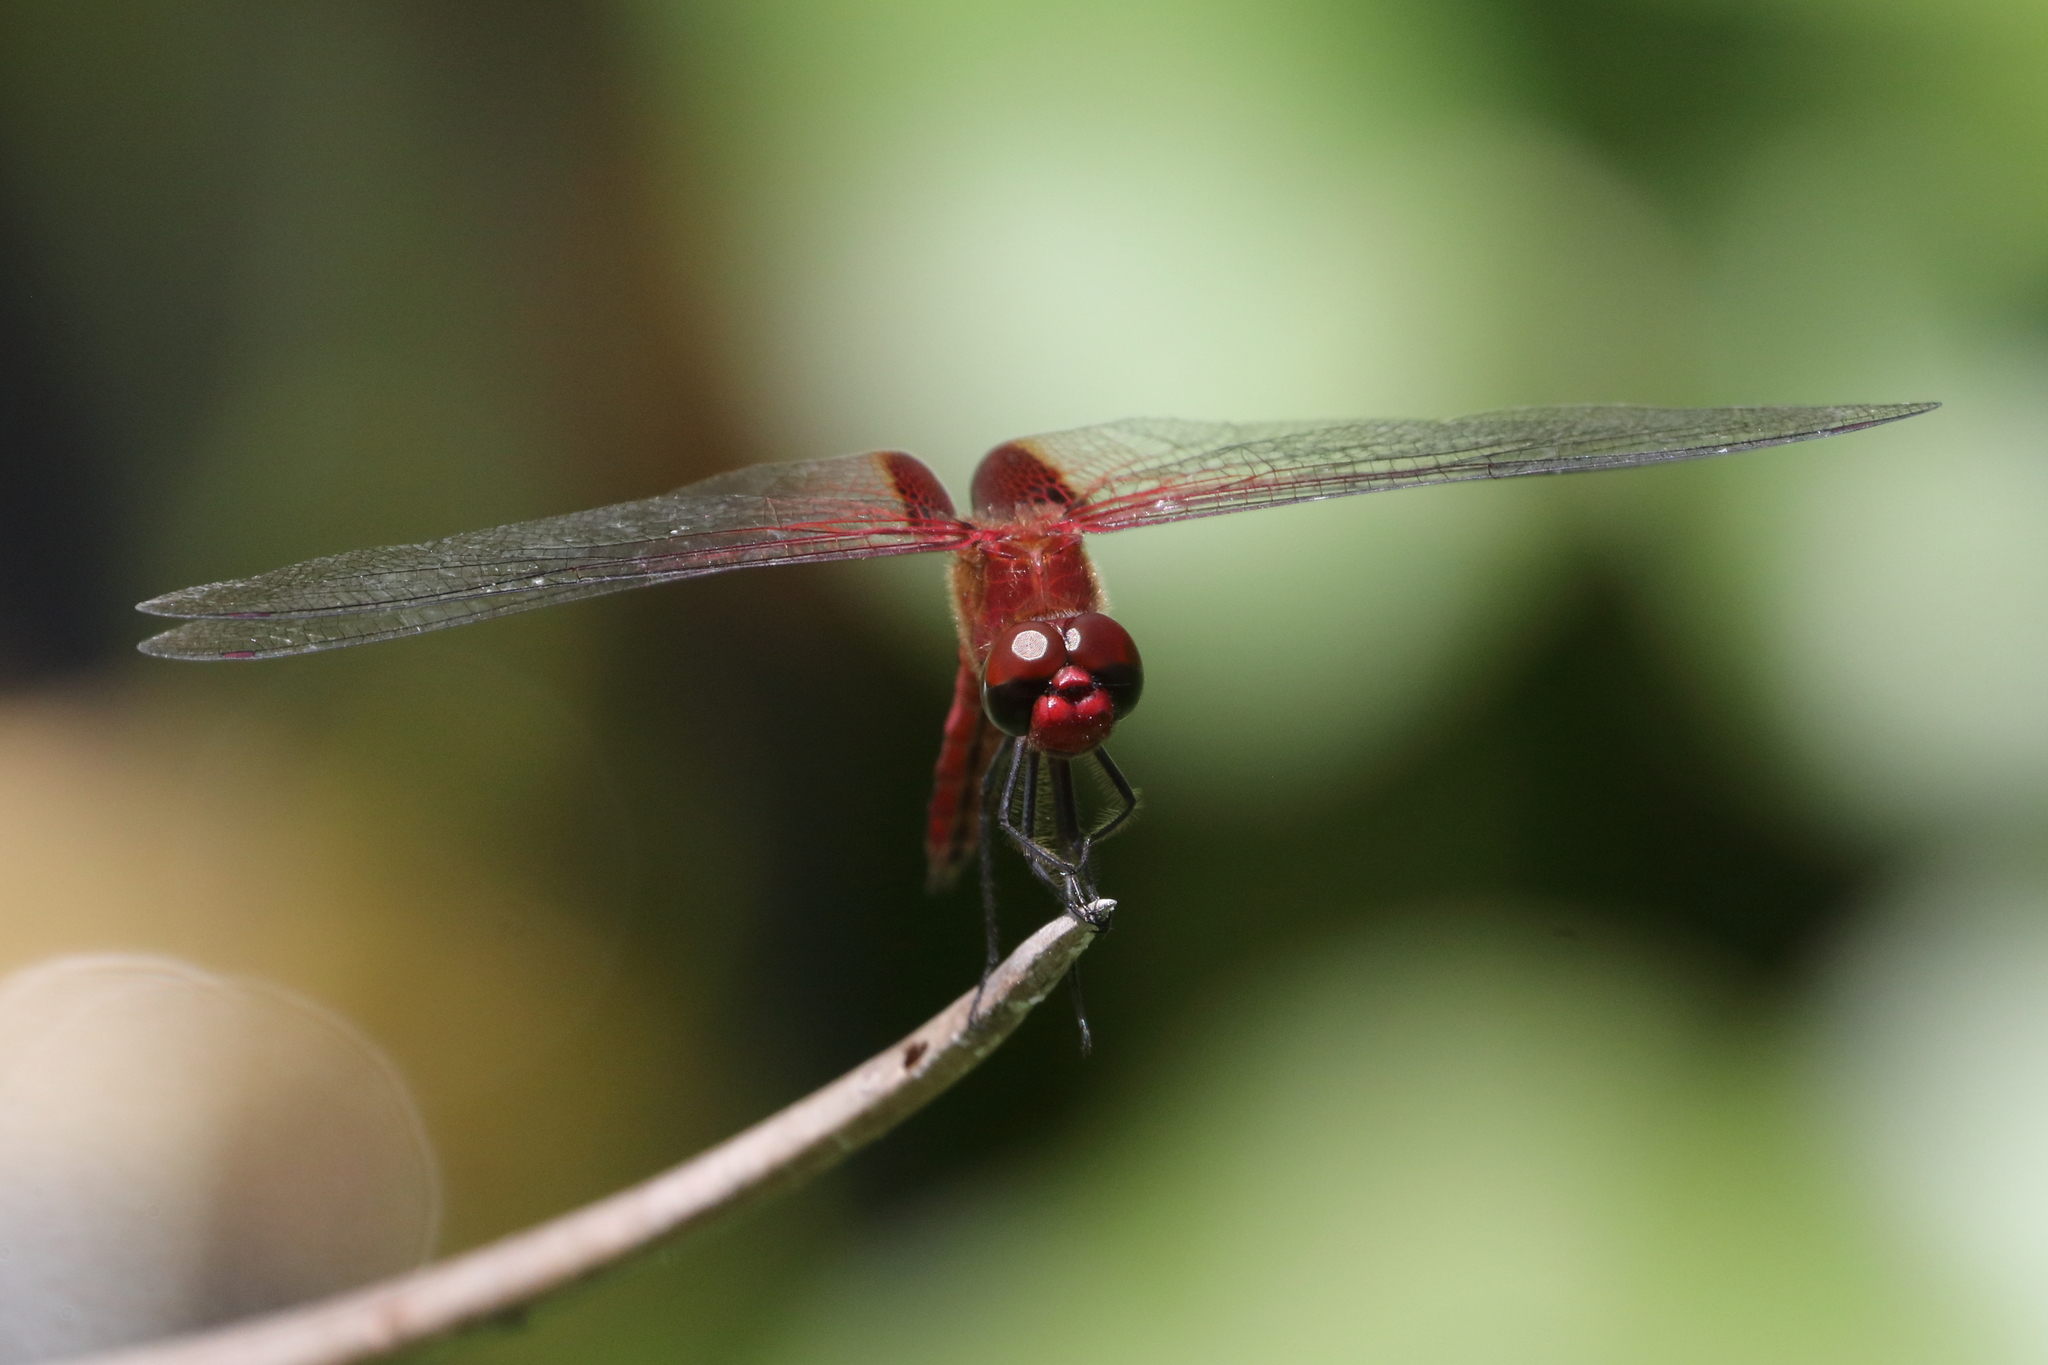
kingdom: Animalia
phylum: Arthropoda
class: Insecta
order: Odonata
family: Libellulidae
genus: Tramea
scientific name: Tramea abdominalis
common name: Vermilion saddlebags
